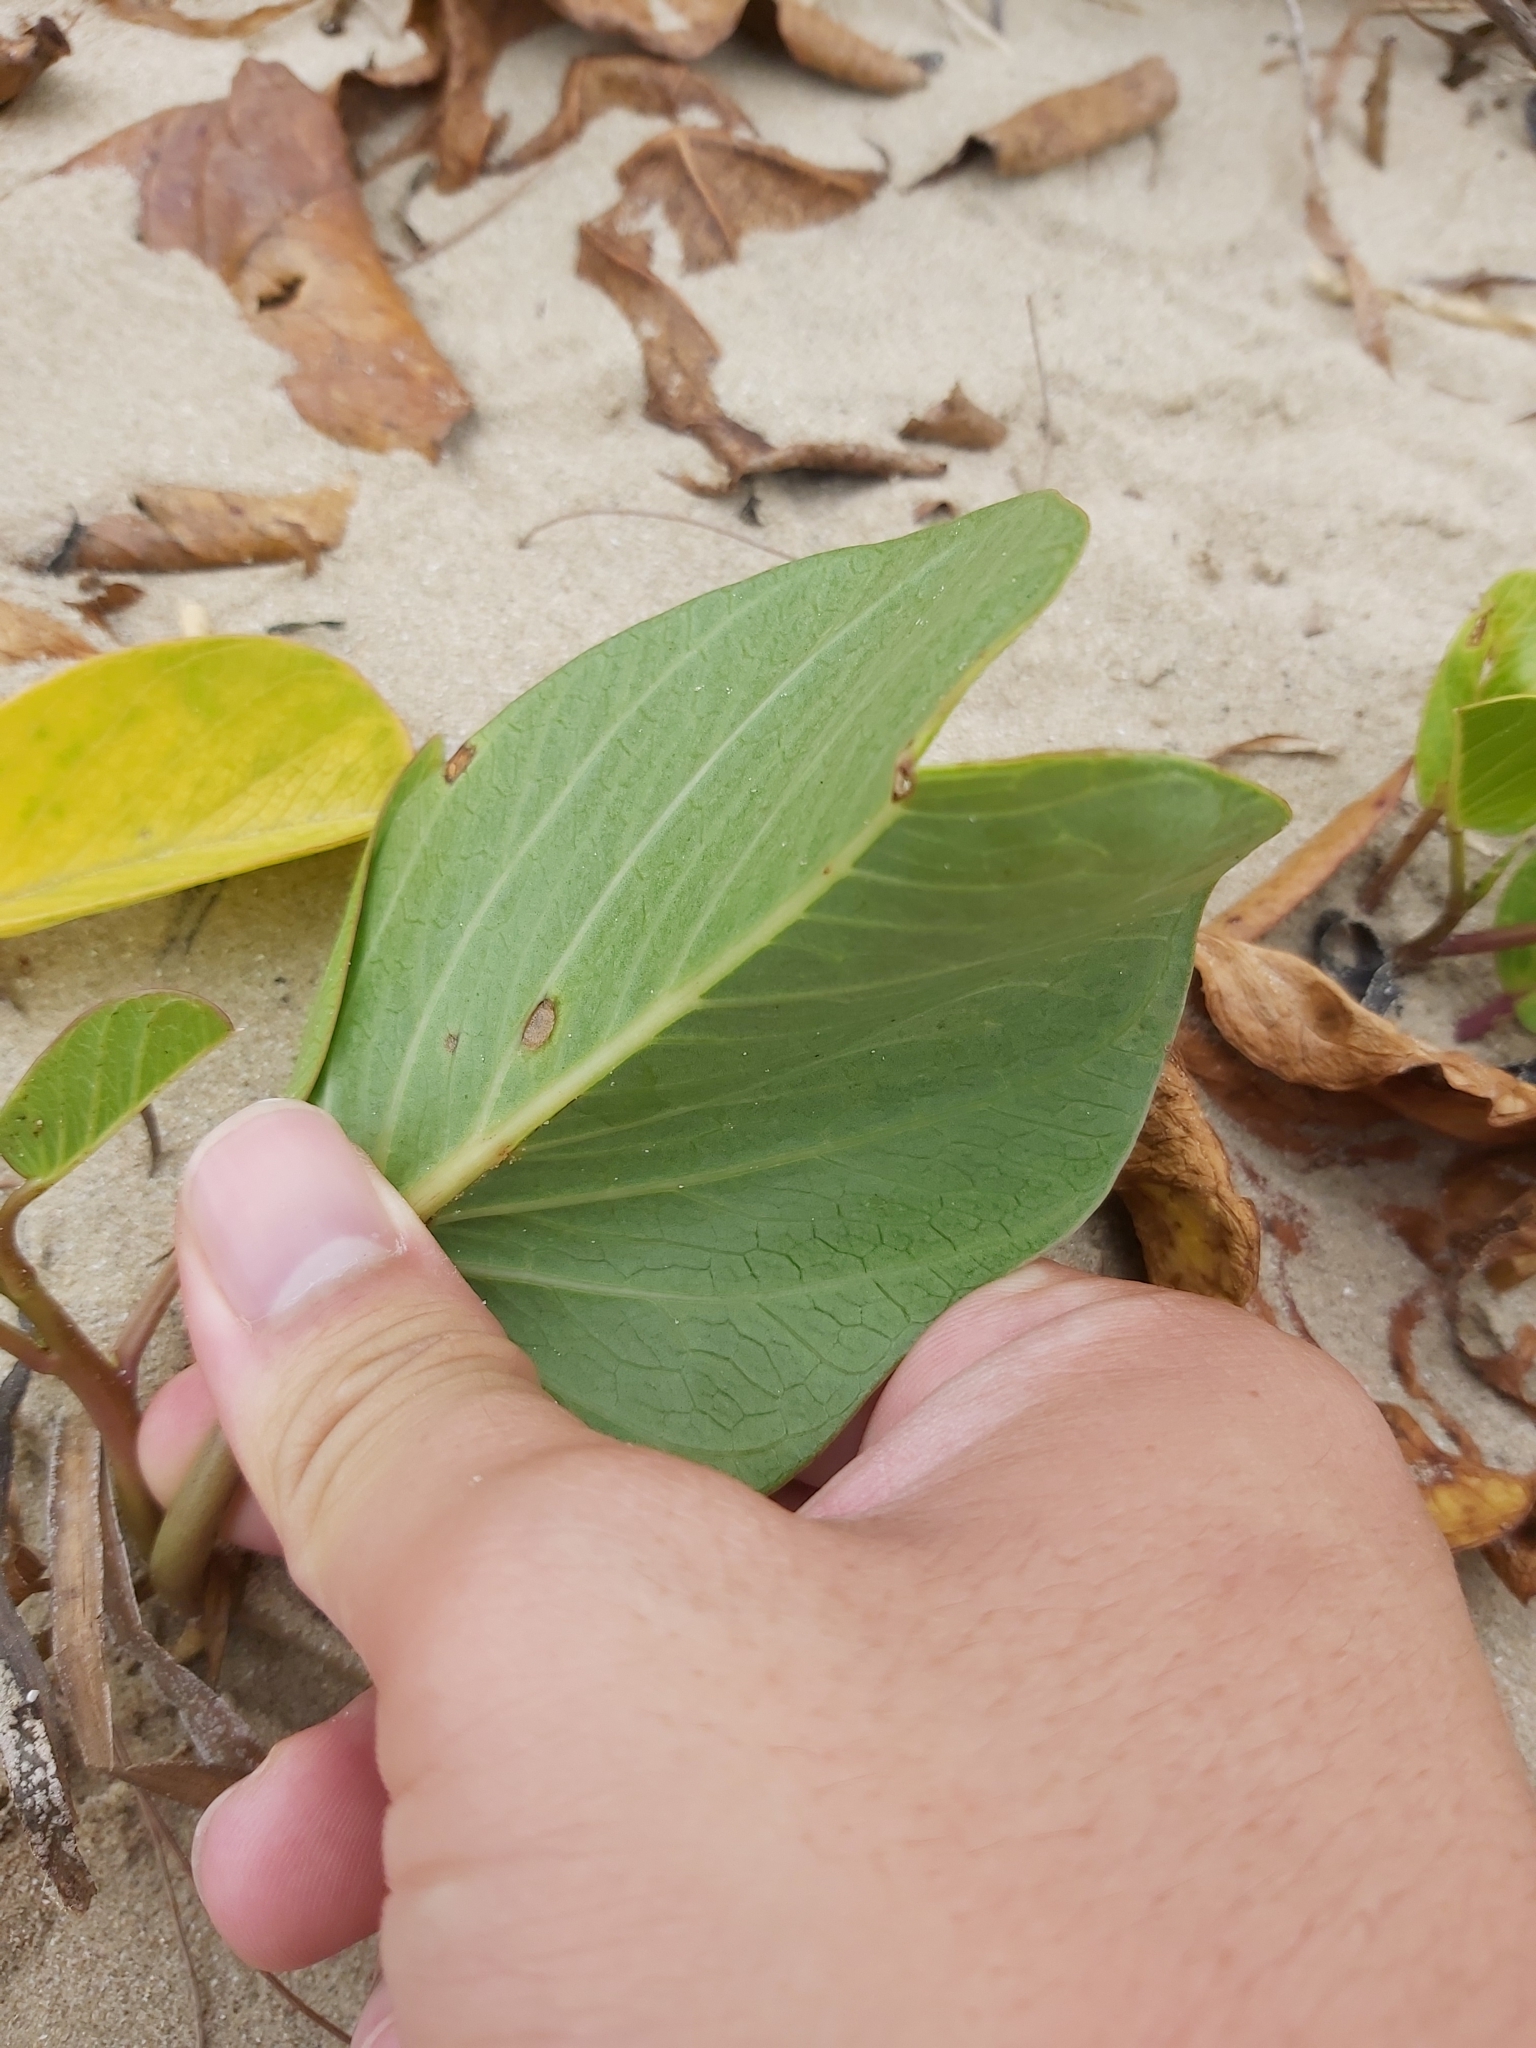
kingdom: Plantae
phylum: Tracheophyta
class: Magnoliopsida
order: Solanales
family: Convolvulaceae
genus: Ipomoea
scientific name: Ipomoea pes-caprae
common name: Beach morning glory
